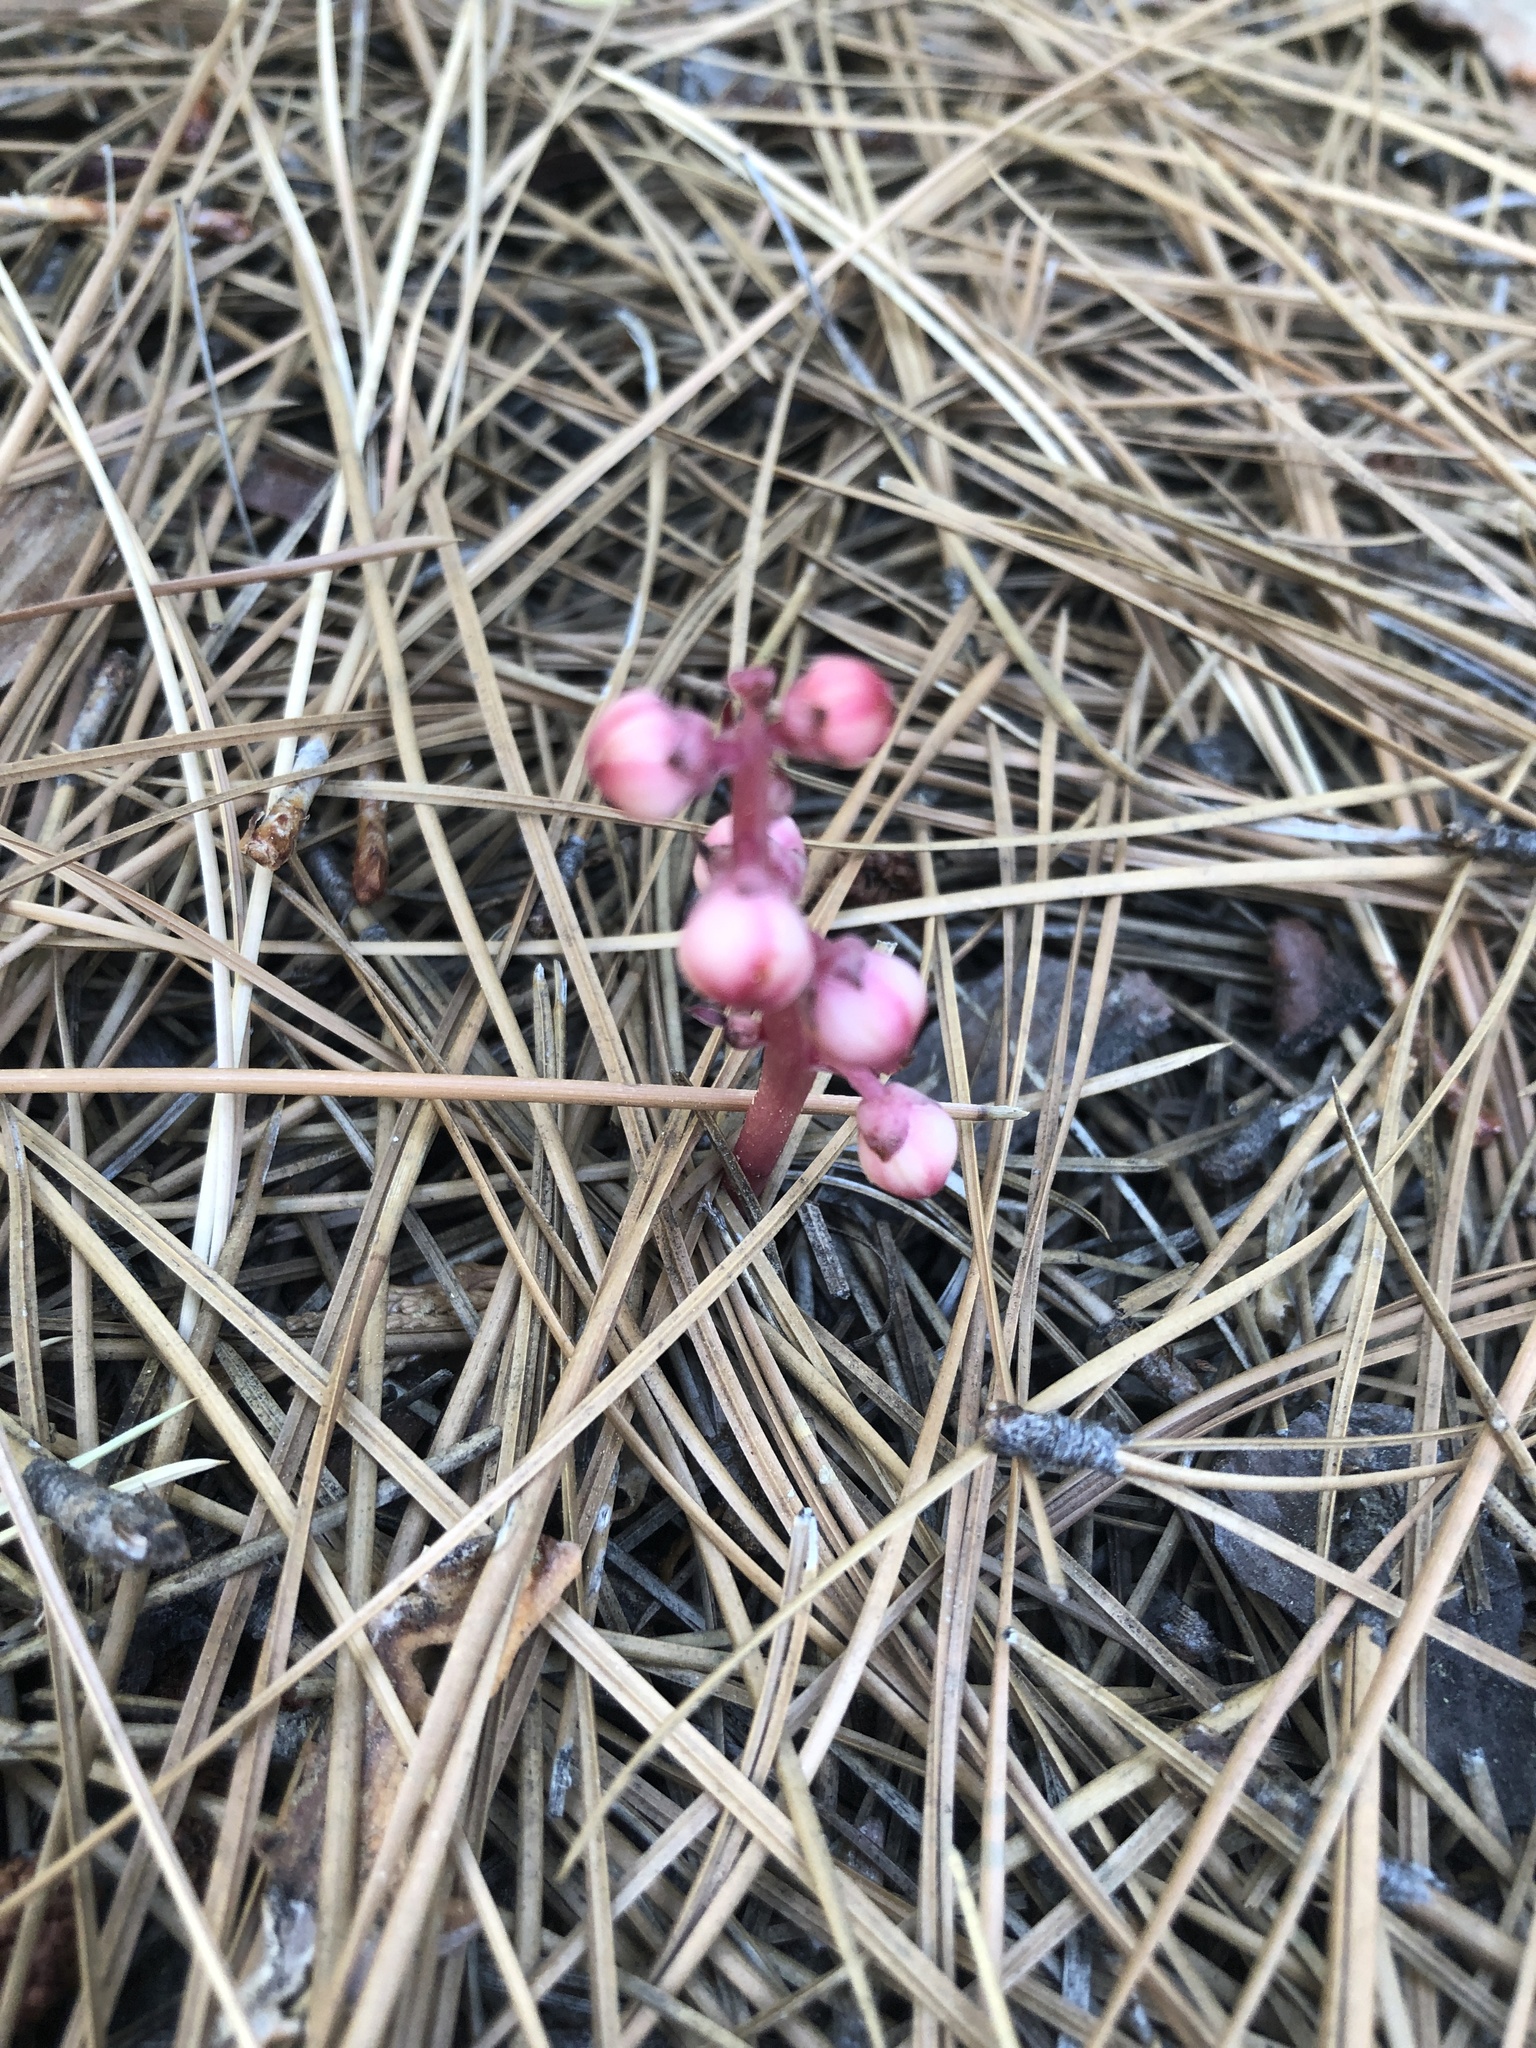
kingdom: Plantae
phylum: Tracheophyta
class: Magnoliopsida
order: Ericales
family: Ericaceae
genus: Pyrola
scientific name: Pyrola aphylla
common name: Leafless wintergreen
